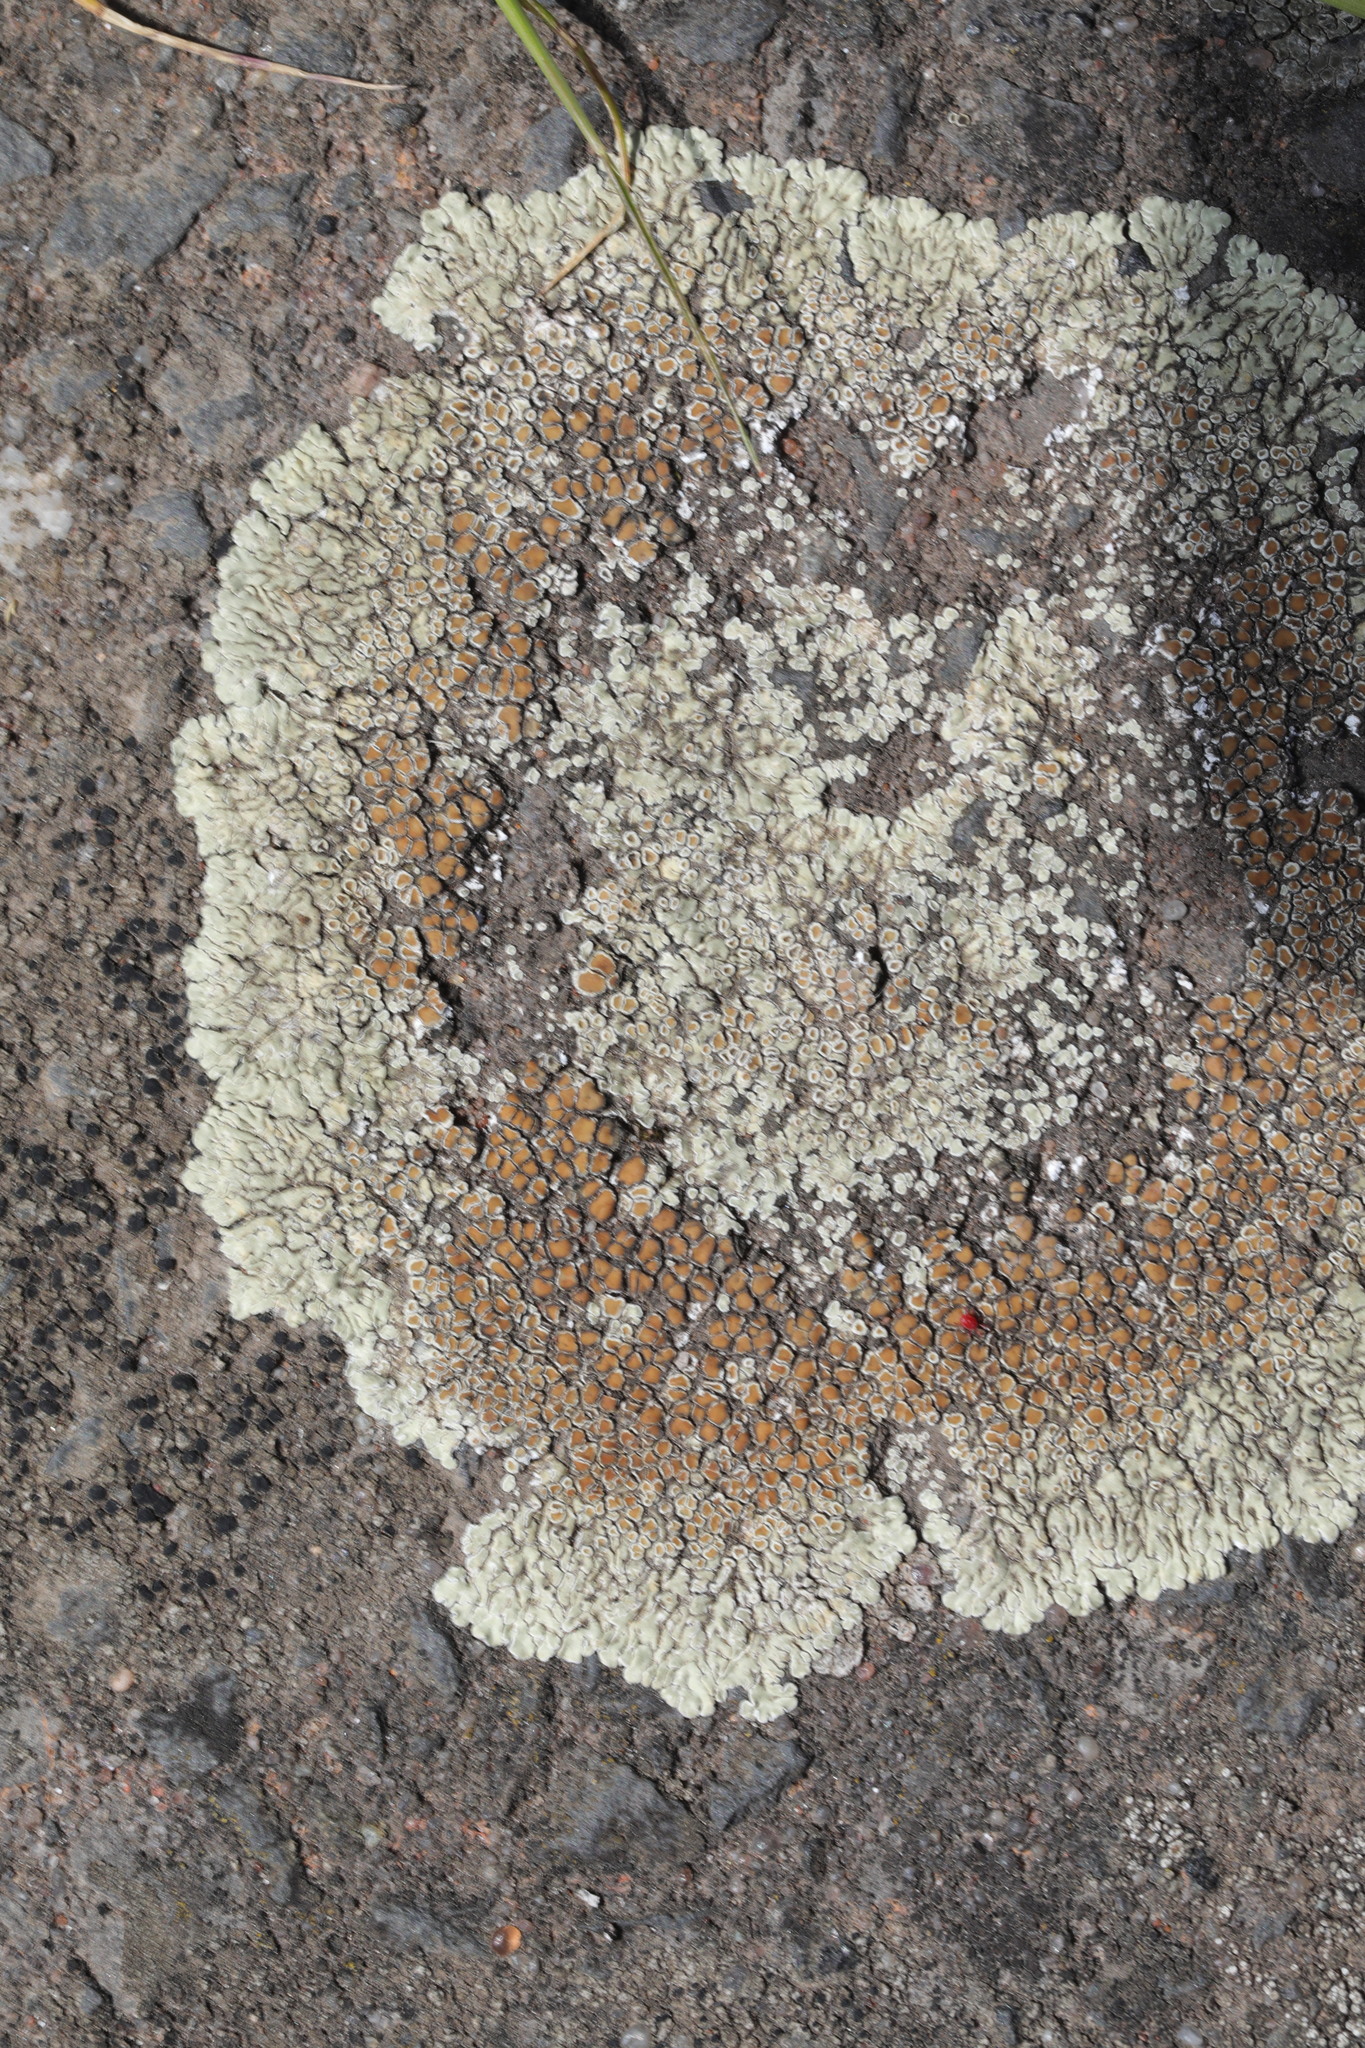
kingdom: Fungi
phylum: Ascomycota
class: Lecanoromycetes
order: Lecanorales
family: Lecanoraceae
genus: Protoparmeliopsis
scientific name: Protoparmeliopsis muralis
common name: Stonewall rim lichen
